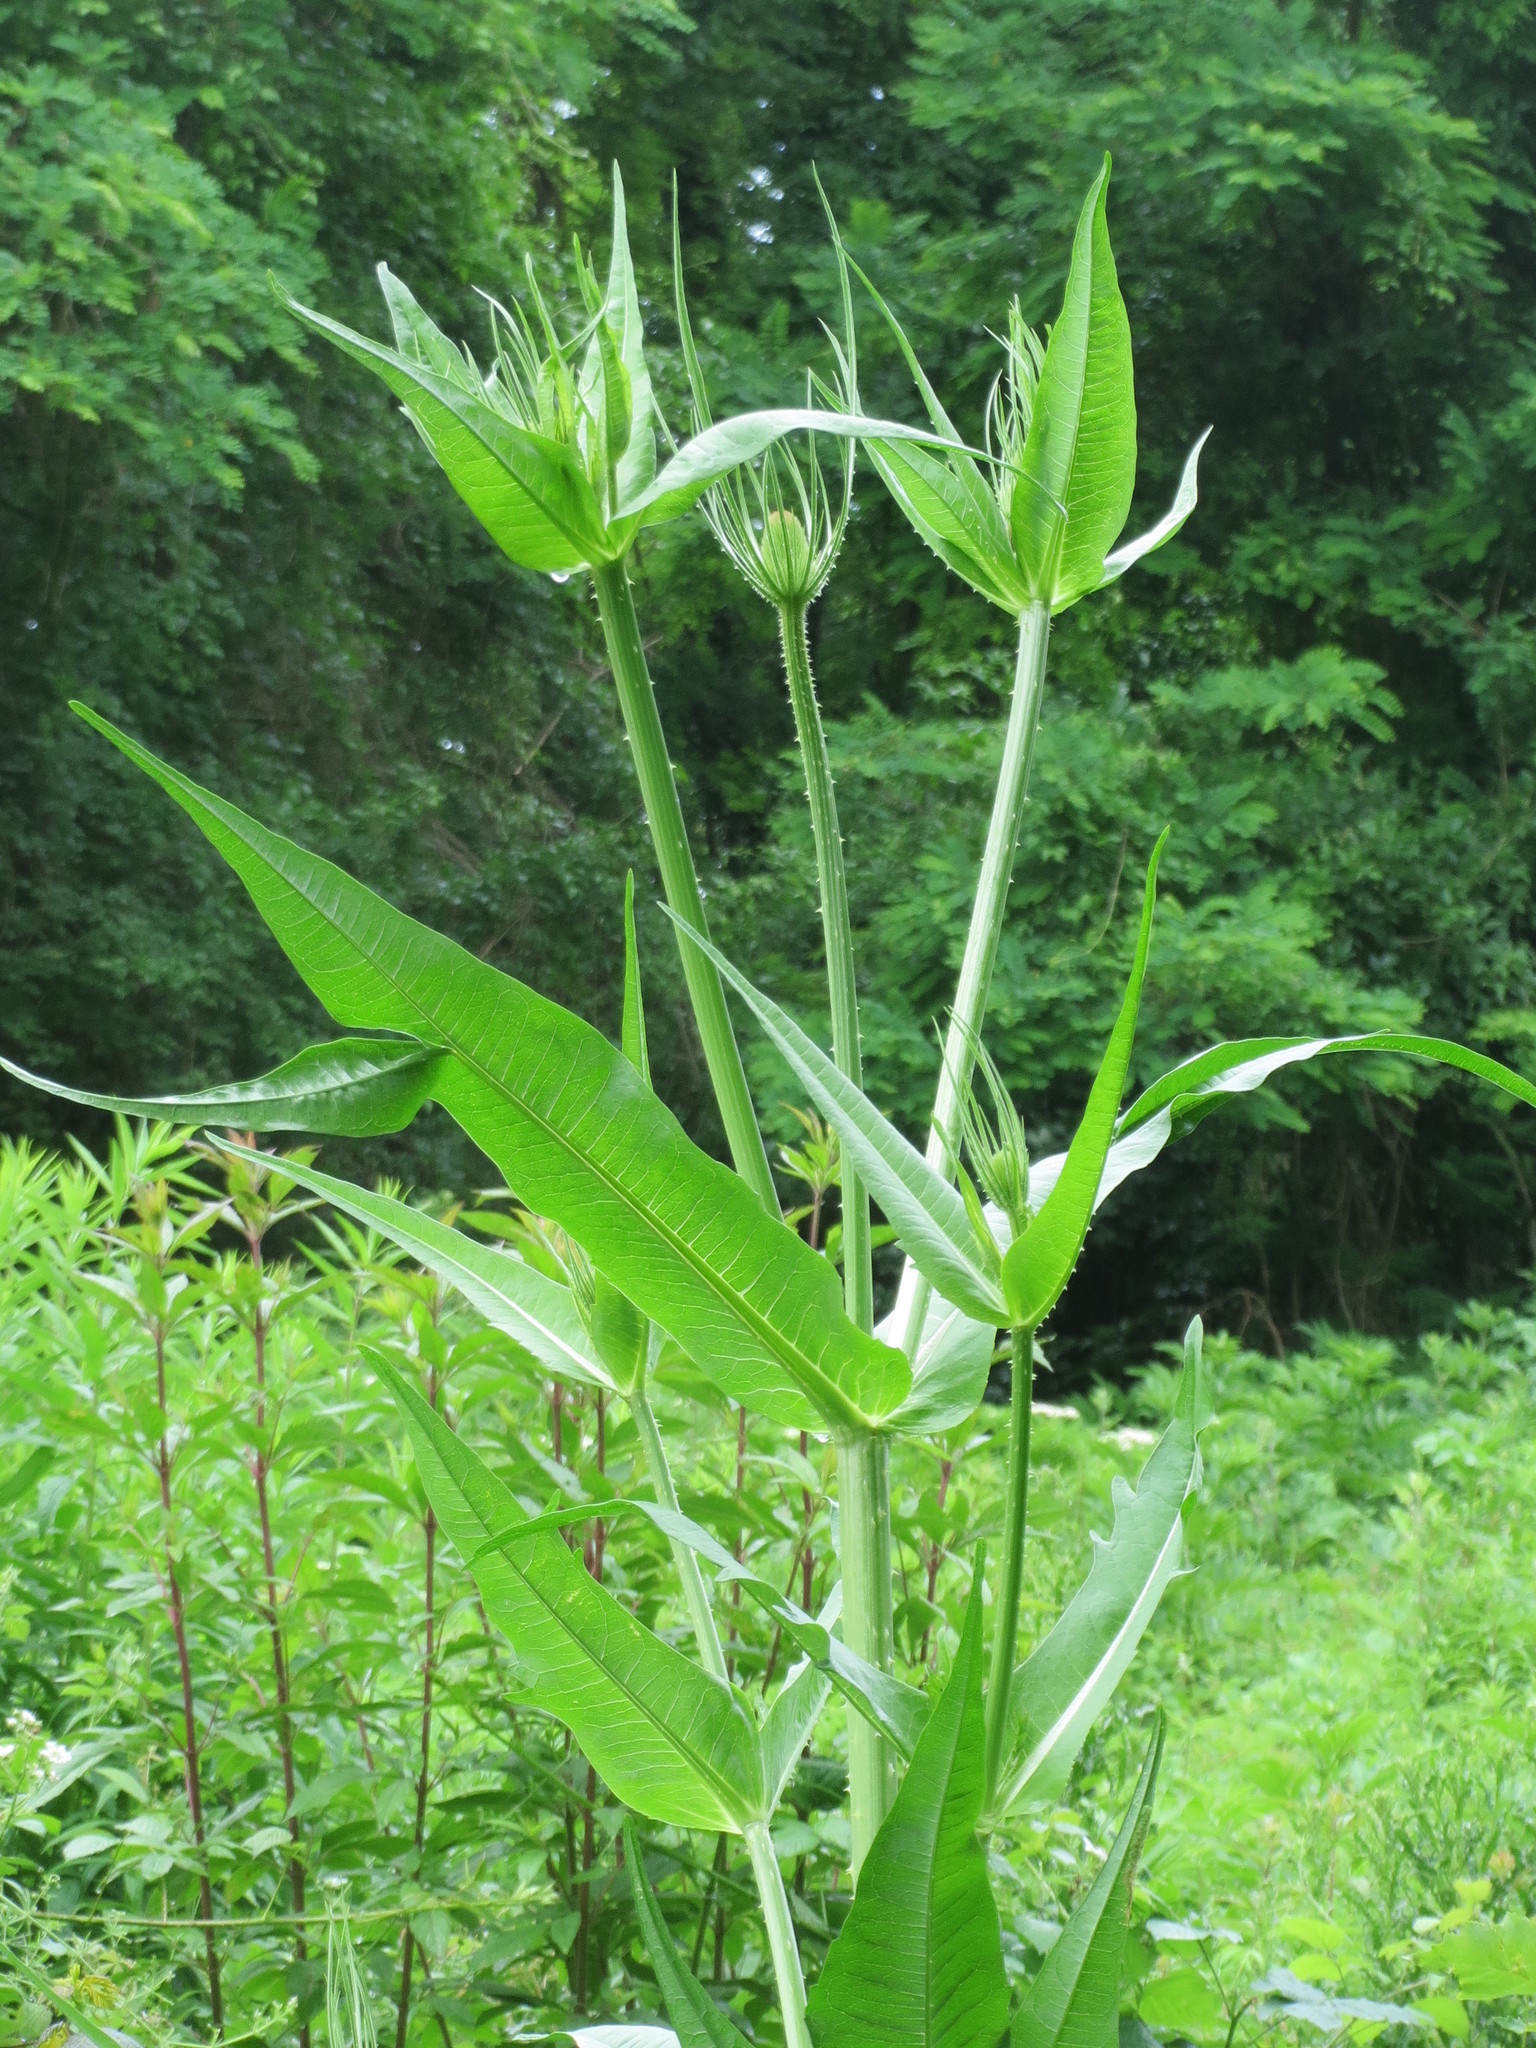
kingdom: Plantae
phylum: Tracheophyta
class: Magnoliopsida
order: Dipsacales
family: Caprifoliaceae
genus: Dipsacus
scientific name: Dipsacus fullonum
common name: Teasel
